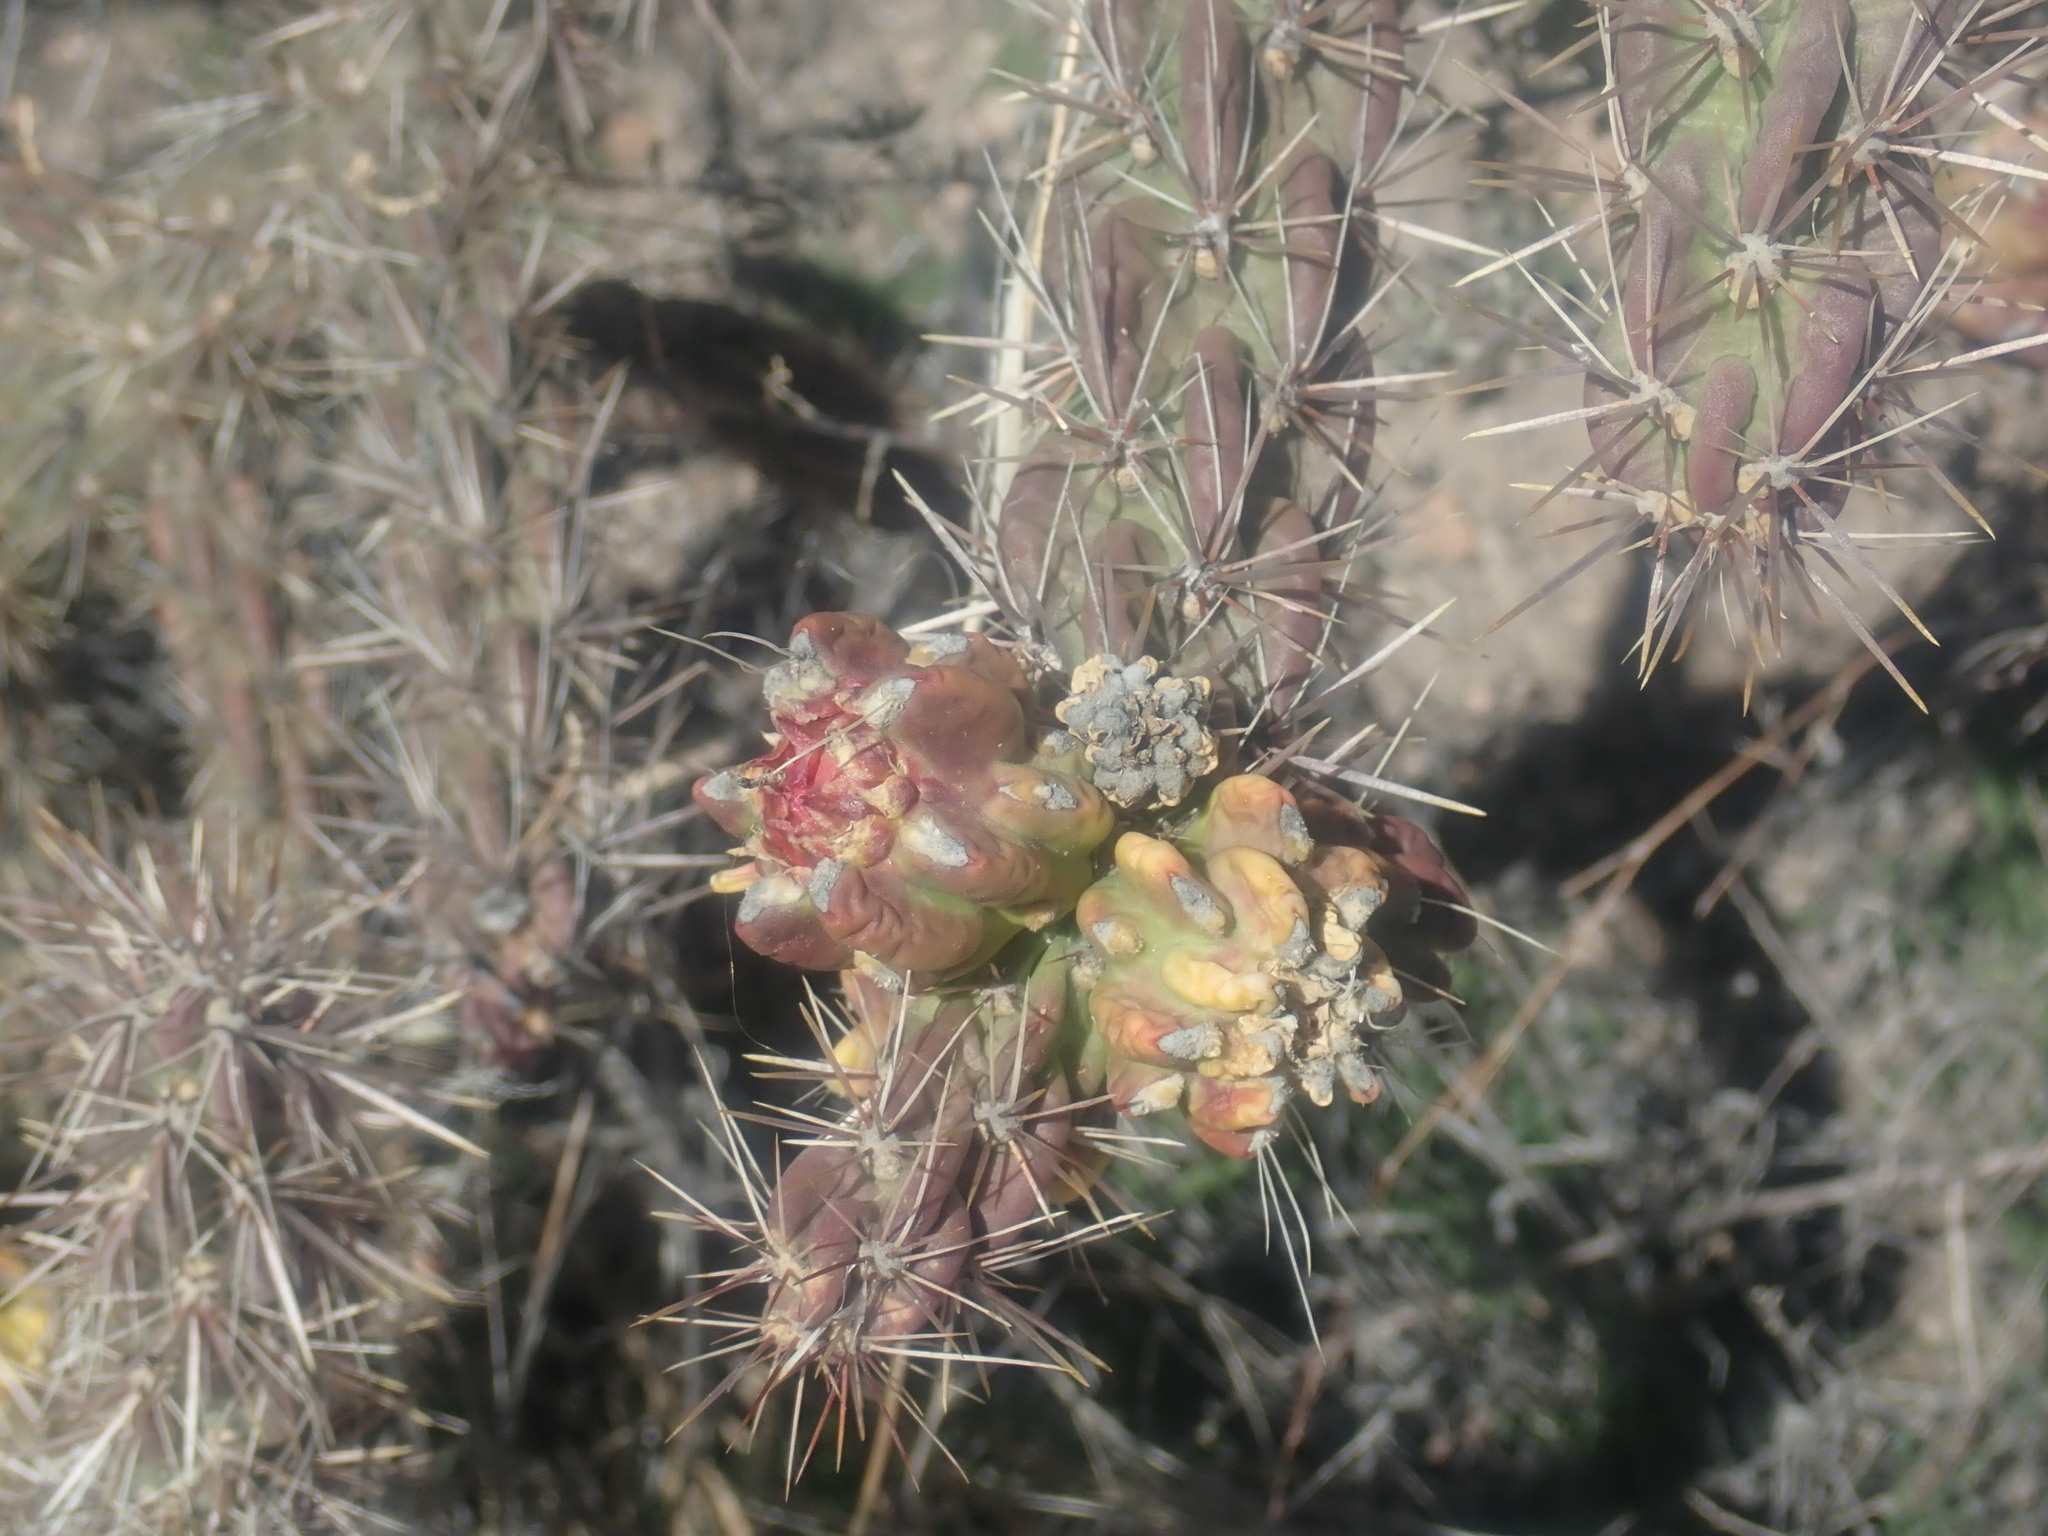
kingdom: Plantae
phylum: Tracheophyta
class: Magnoliopsida
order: Caryophyllales
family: Cactaceae
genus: Cylindropuntia
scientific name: Cylindropuntia imbricata
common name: Candelabrum cactus
